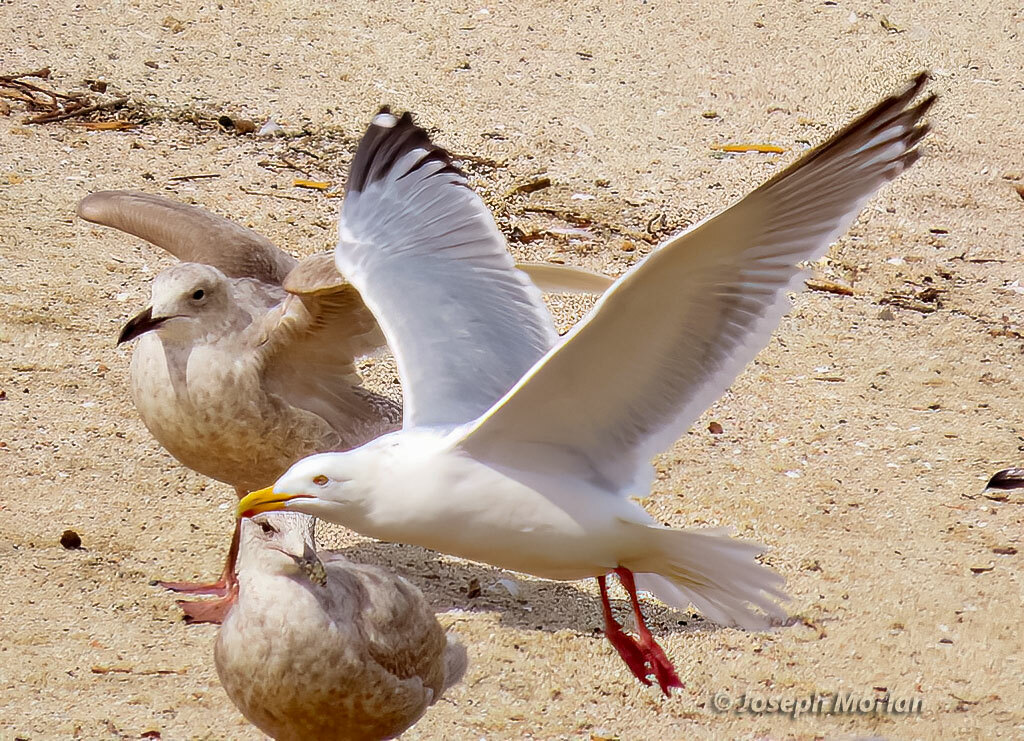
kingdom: Animalia
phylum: Chordata
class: Aves
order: Charadriiformes
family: Laridae
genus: Larus
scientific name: Larus argentatus
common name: Herring gull
